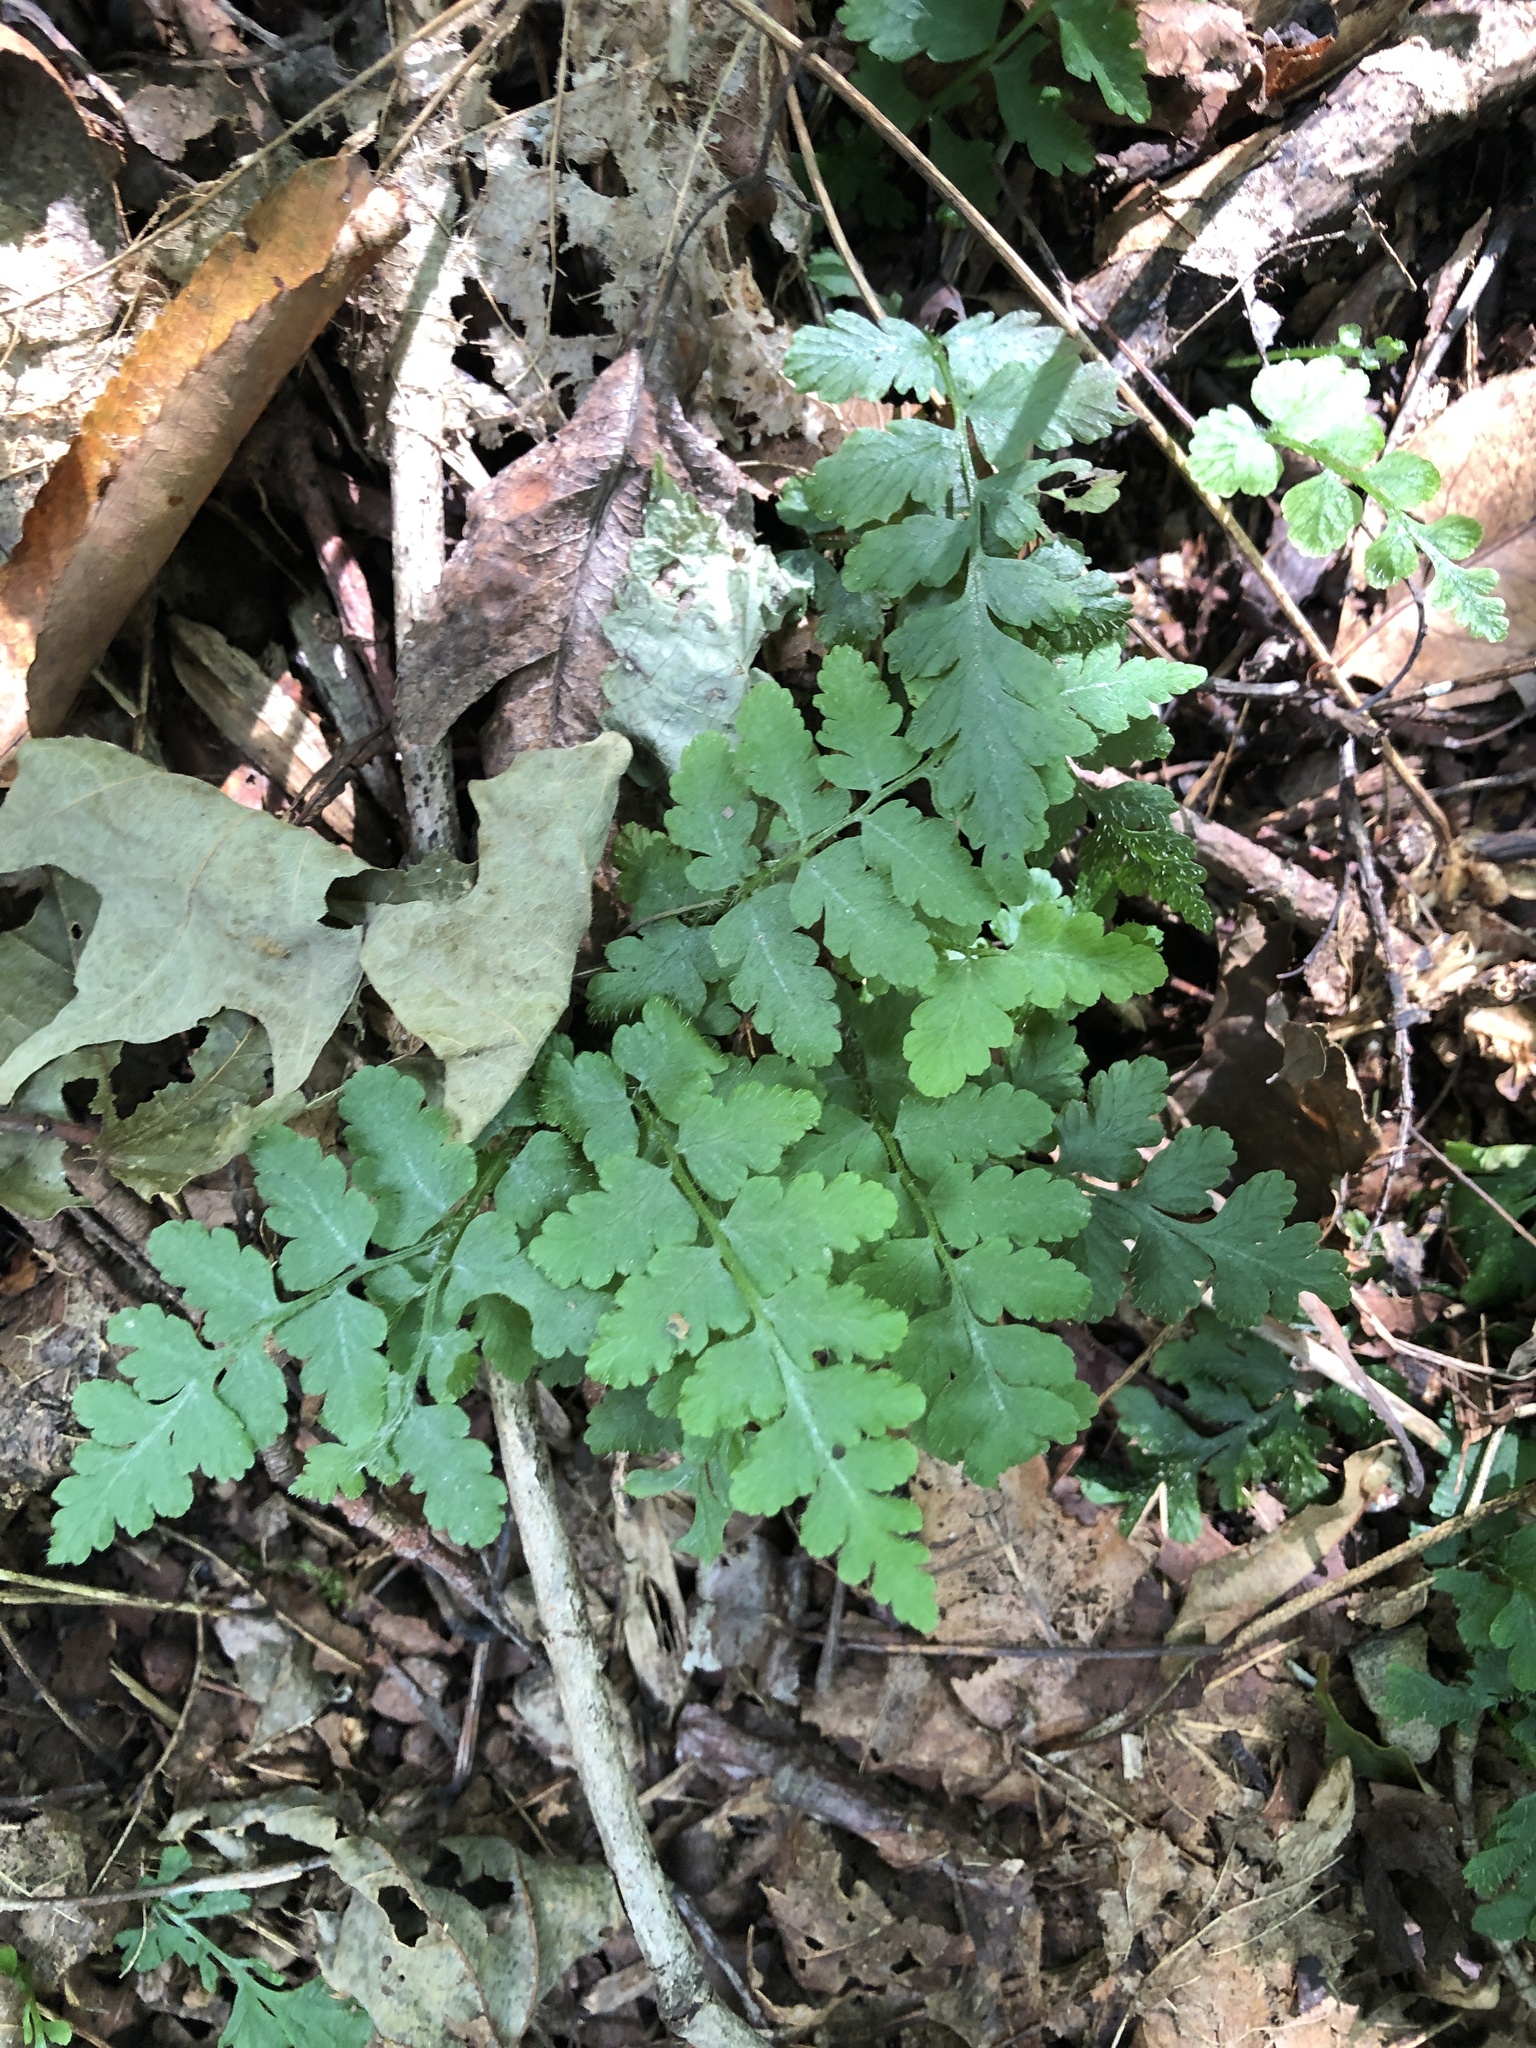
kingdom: Plantae
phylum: Tracheophyta
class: Polypodiopsida
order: Polypodiales
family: Woodsiaceae
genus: Physematium
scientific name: Physematium obtusum
